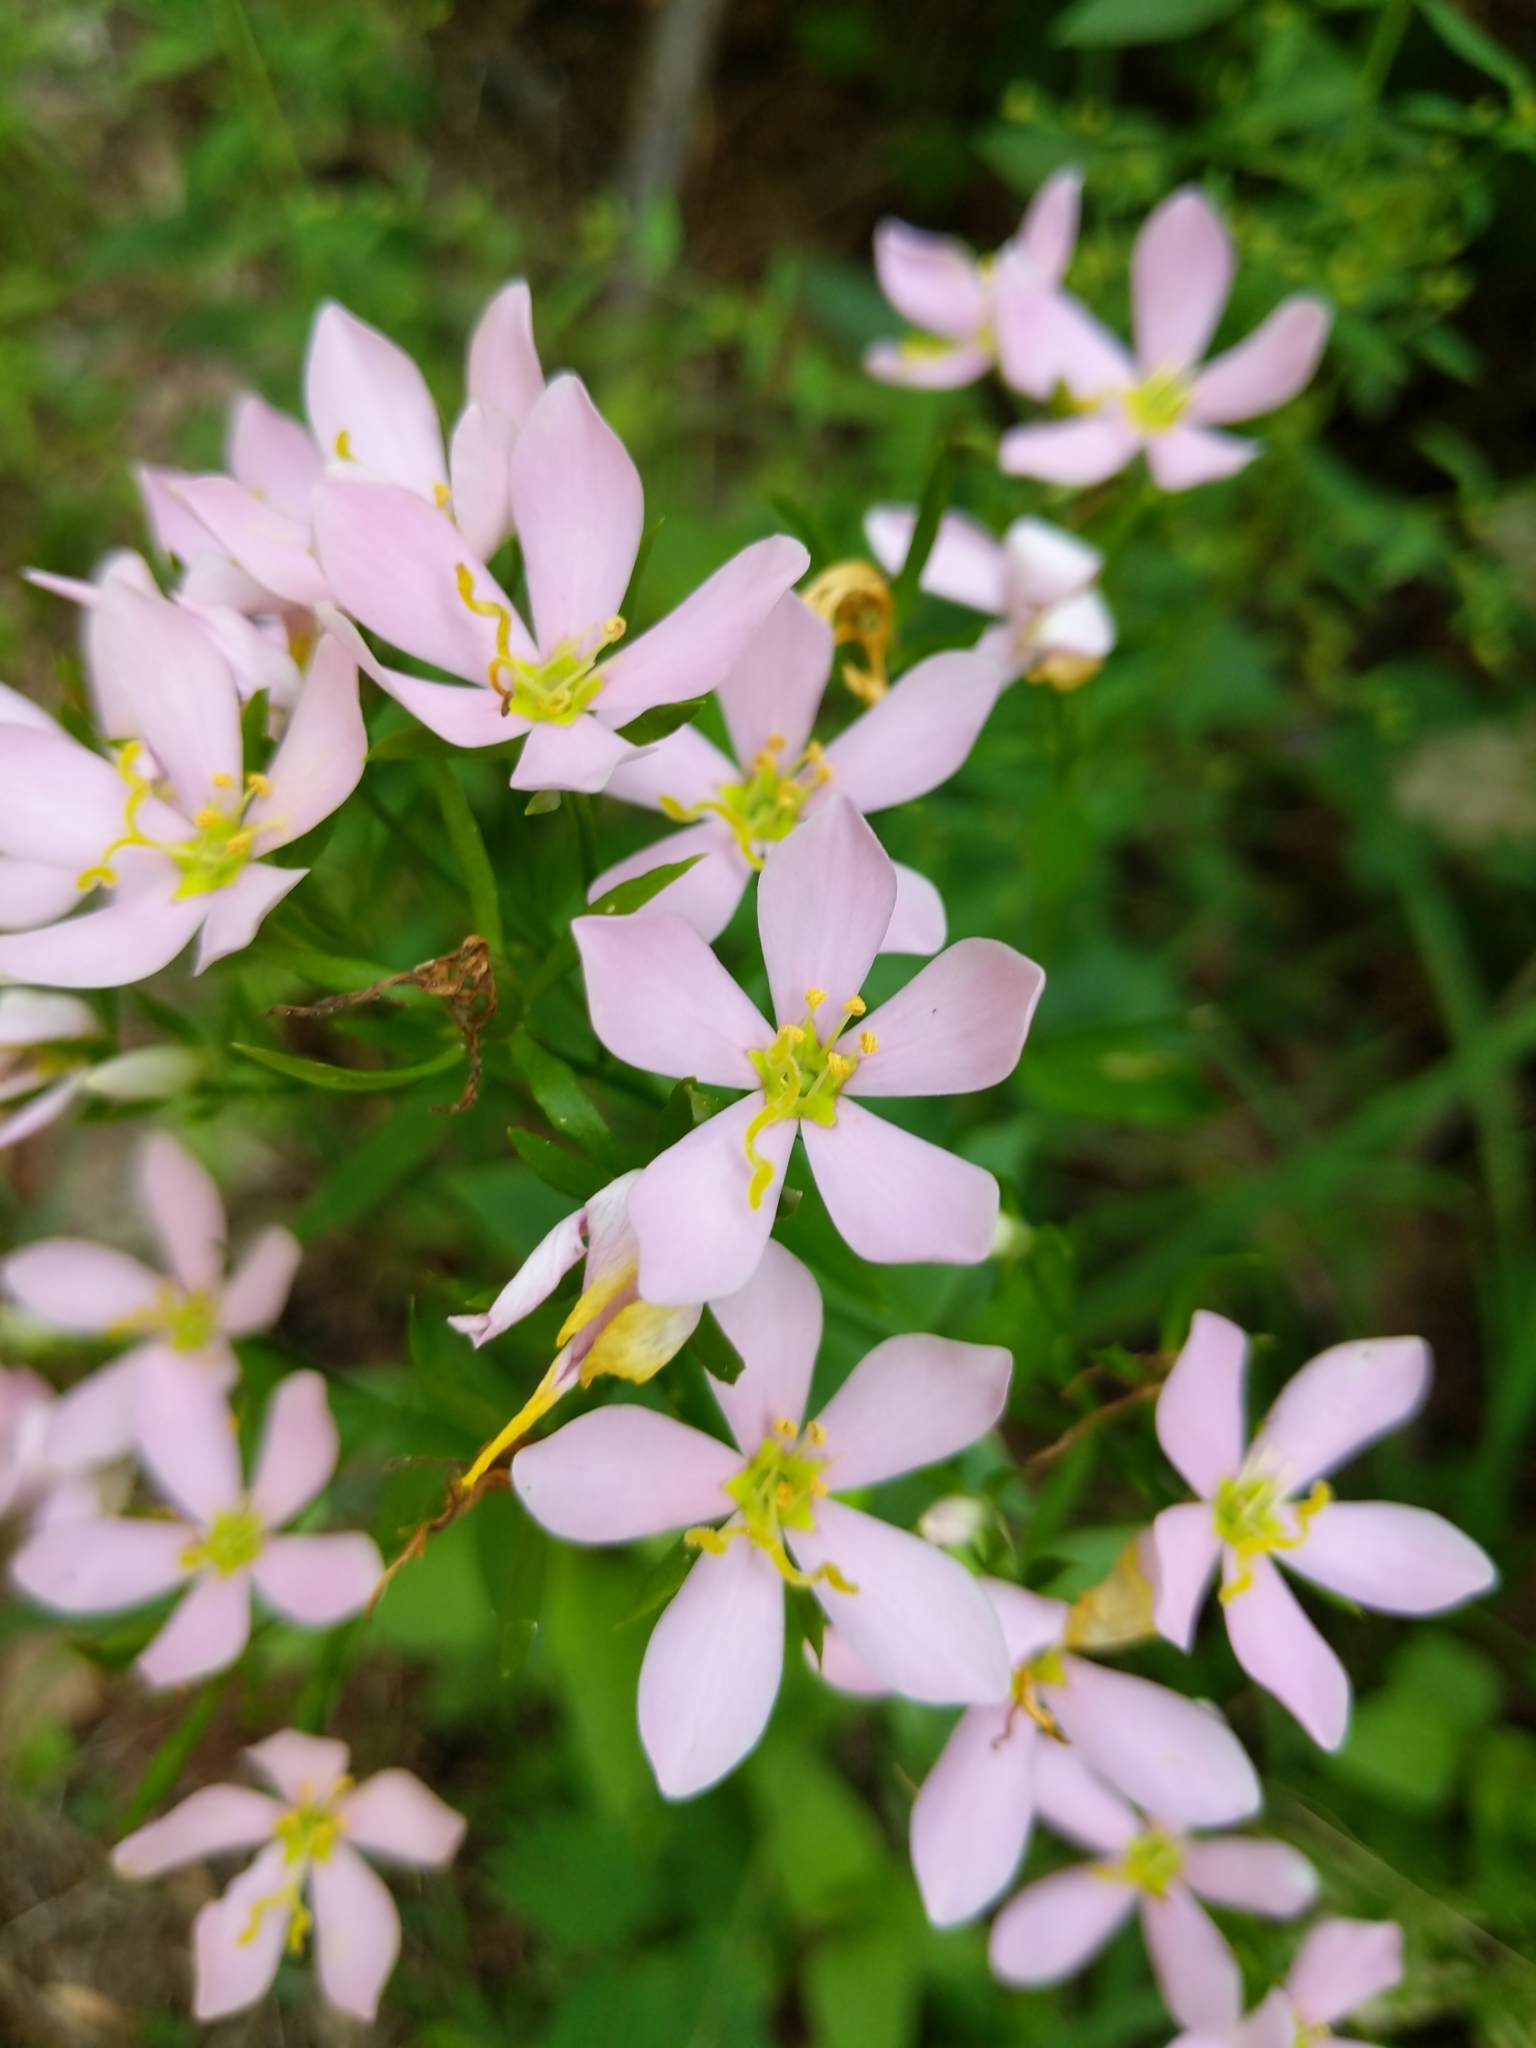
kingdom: Plantae
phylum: Tracheophyta
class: Magnoliopsida
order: Gentianales
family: Gentianaceae
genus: Sabatia
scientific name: Sabatia angularis
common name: Rose-pink
